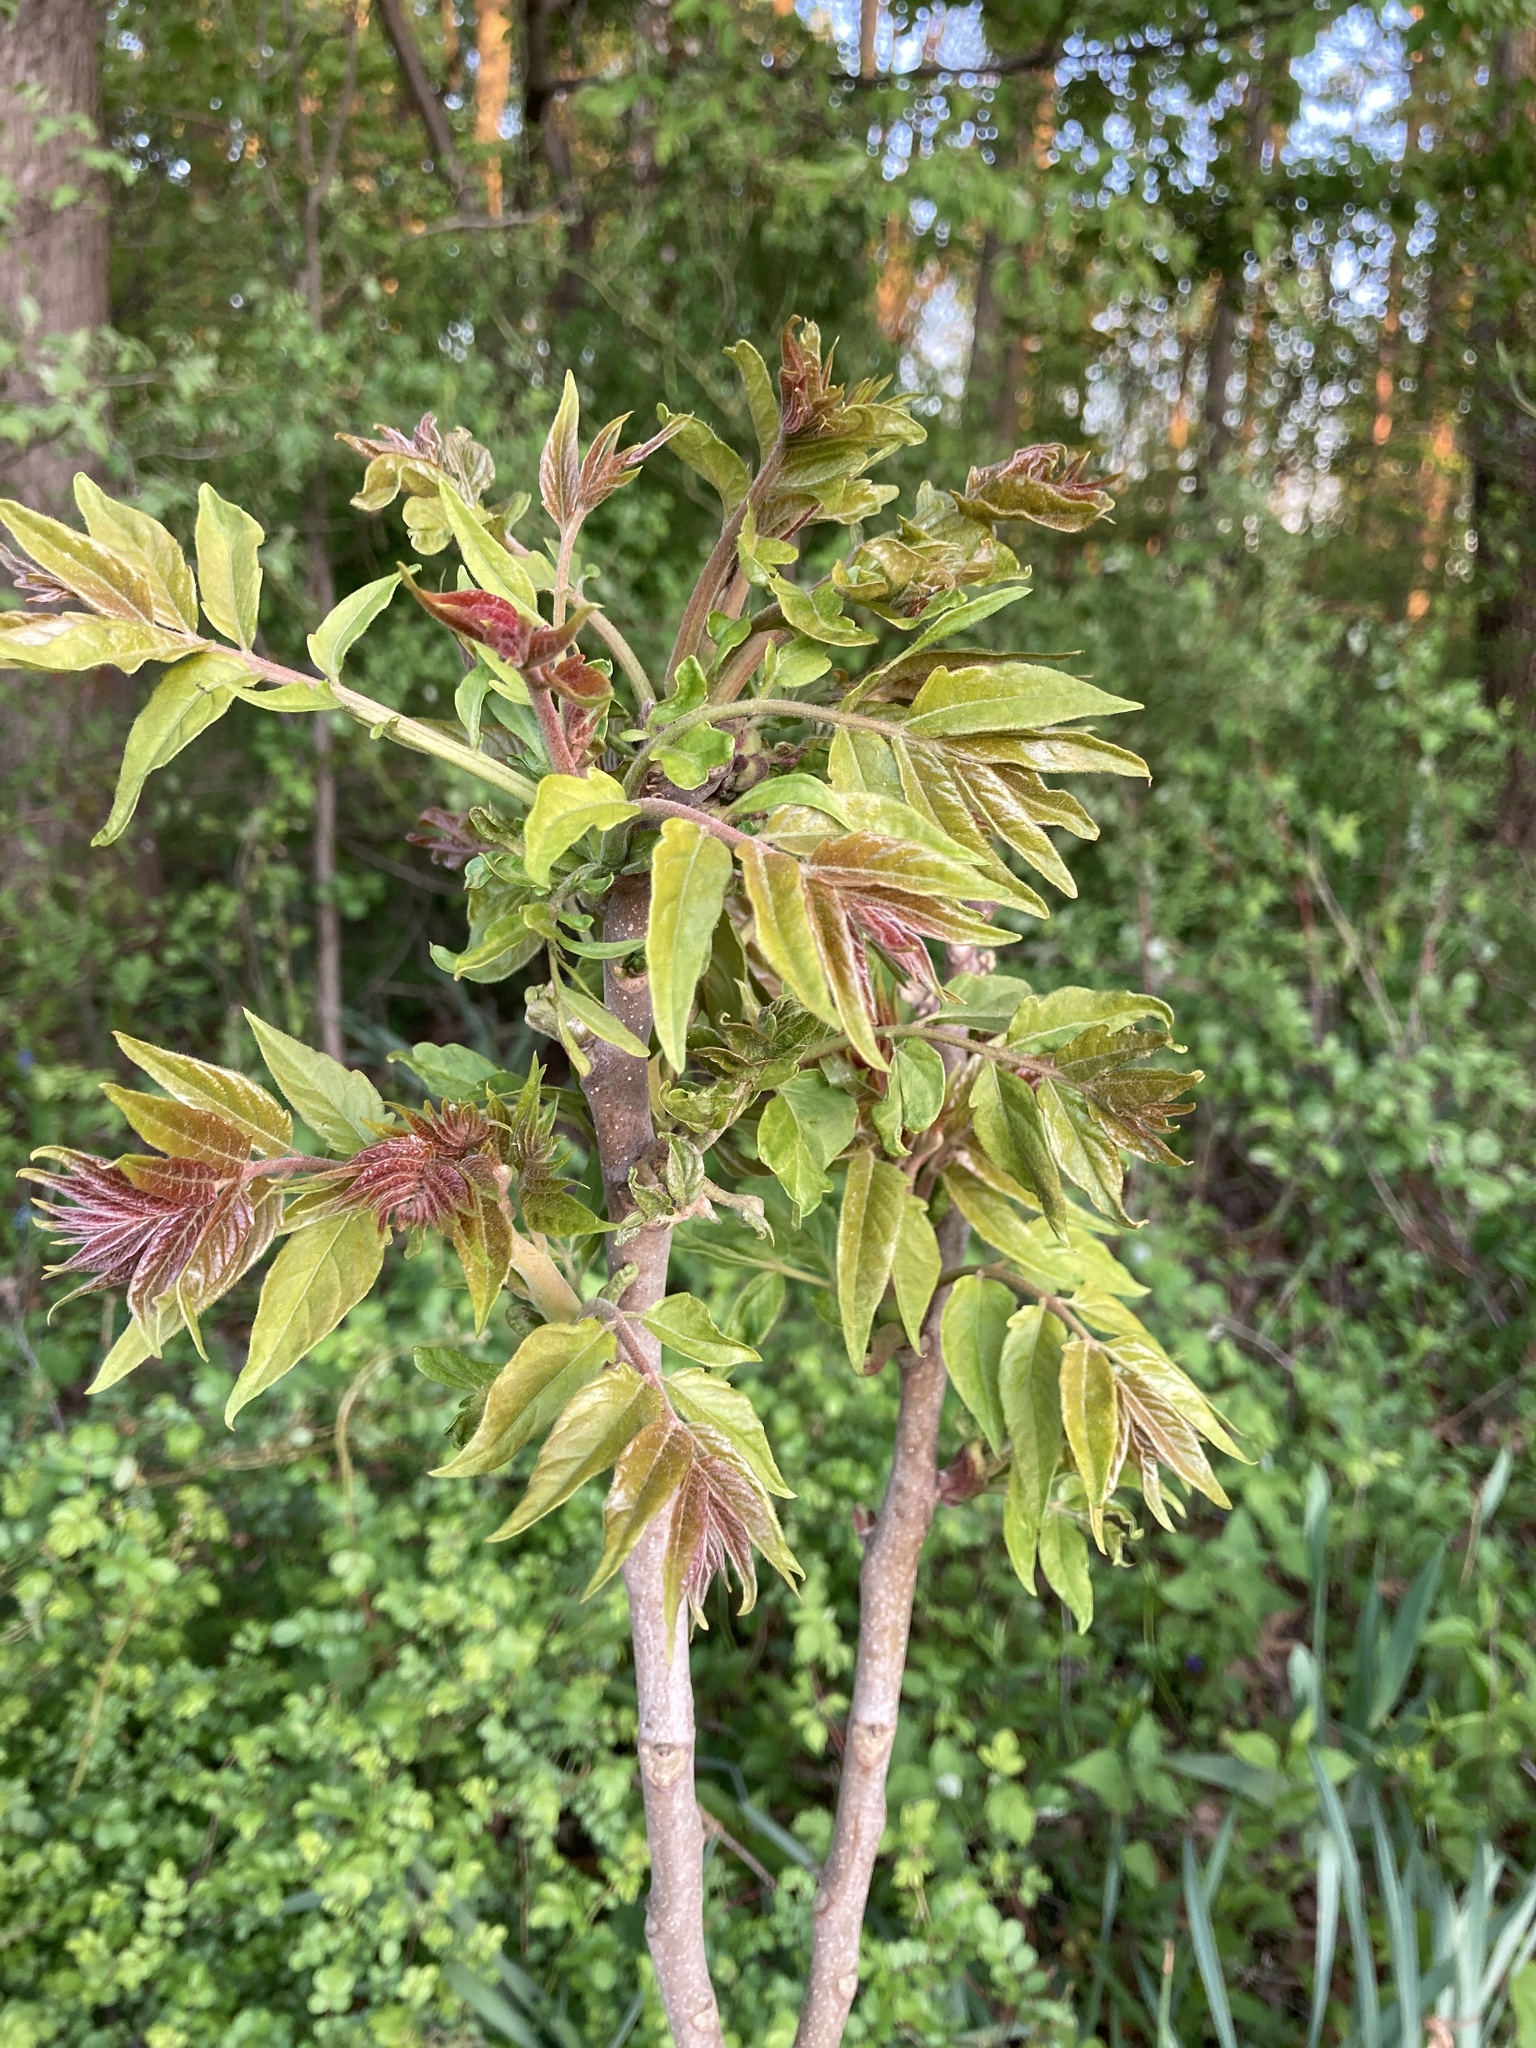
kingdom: Plantae
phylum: Tracheophyta
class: Magnoliopsida
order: Sapindales
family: Simaroubaceae
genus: Ailanthus
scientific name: Ailanthus altissima
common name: Tree-of-heaven
